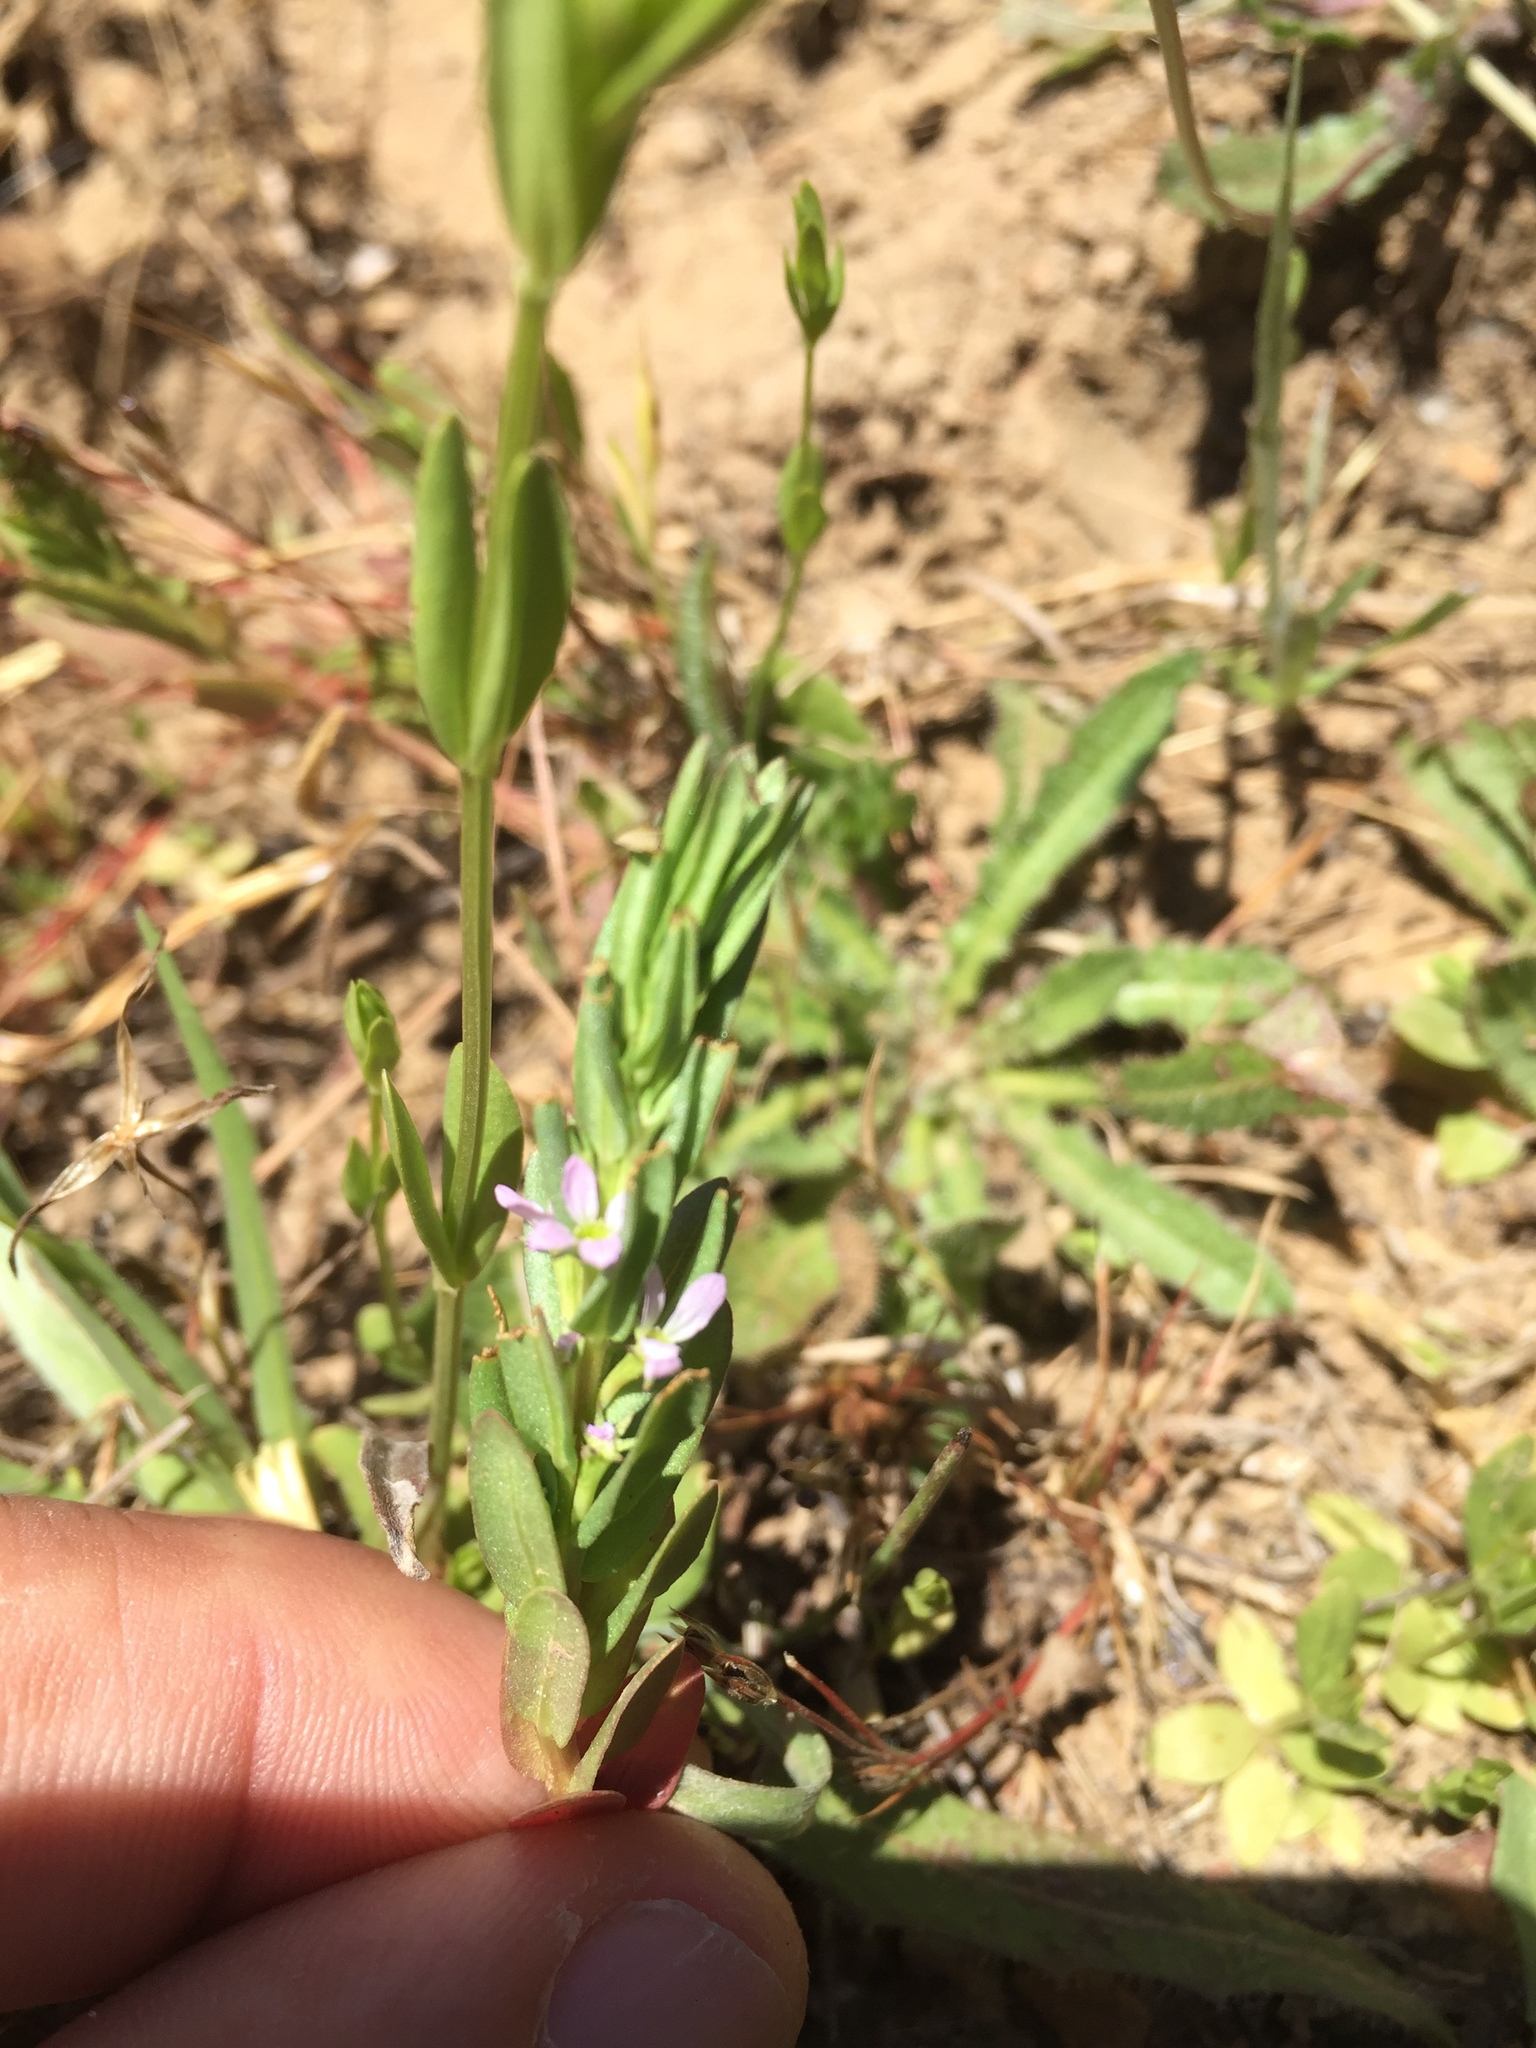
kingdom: Plantae
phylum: Tracheophyta
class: Magnoliopsida
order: Myrtales
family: Lythraceae
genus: Lythrum
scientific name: Lythrum hyssopifolia
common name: Grass-poly
